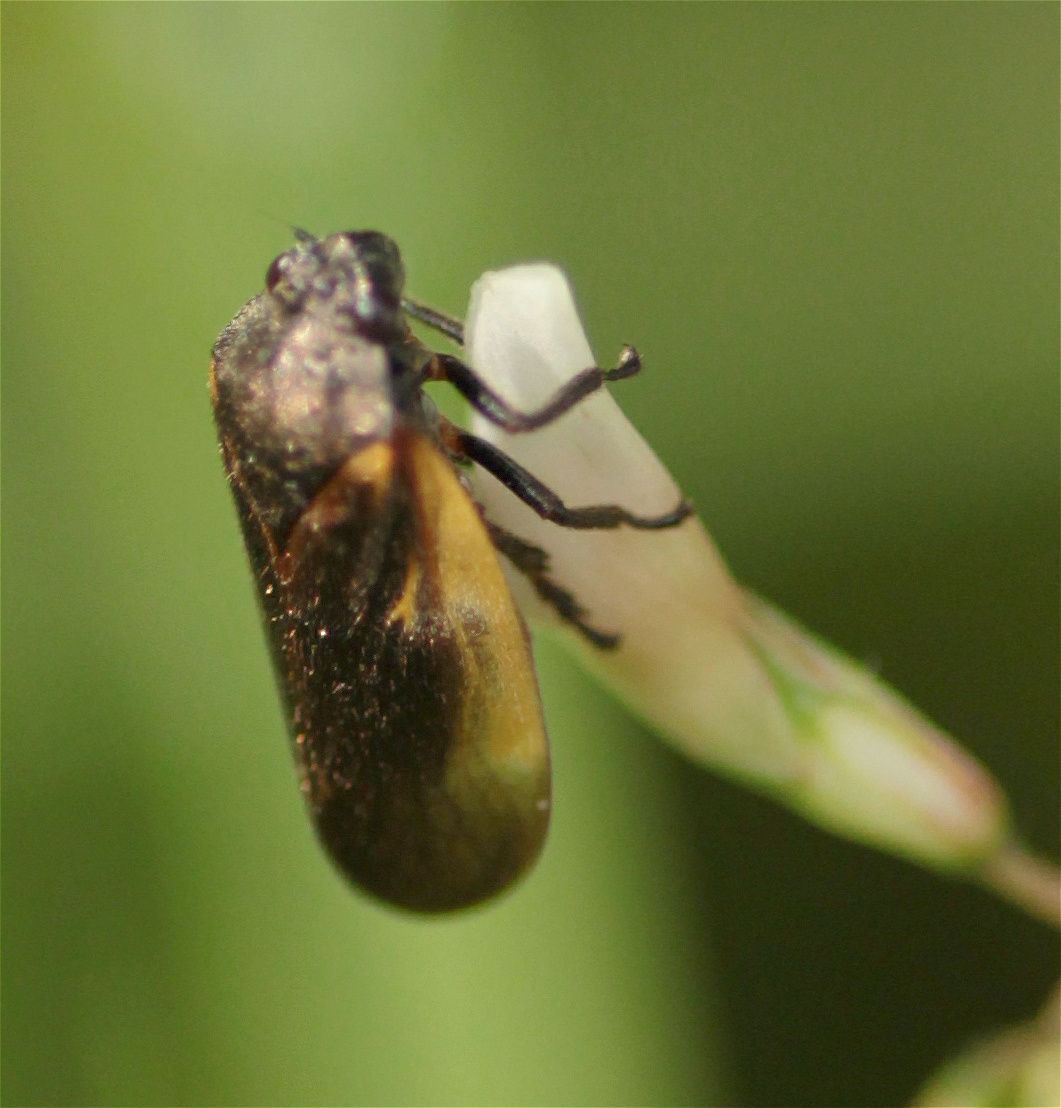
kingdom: Animalia
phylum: Arthropoda
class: Insecta
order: Hemiptera
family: Cercopidae
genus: Aeneolamia
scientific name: Aeneolamia flavilatera
